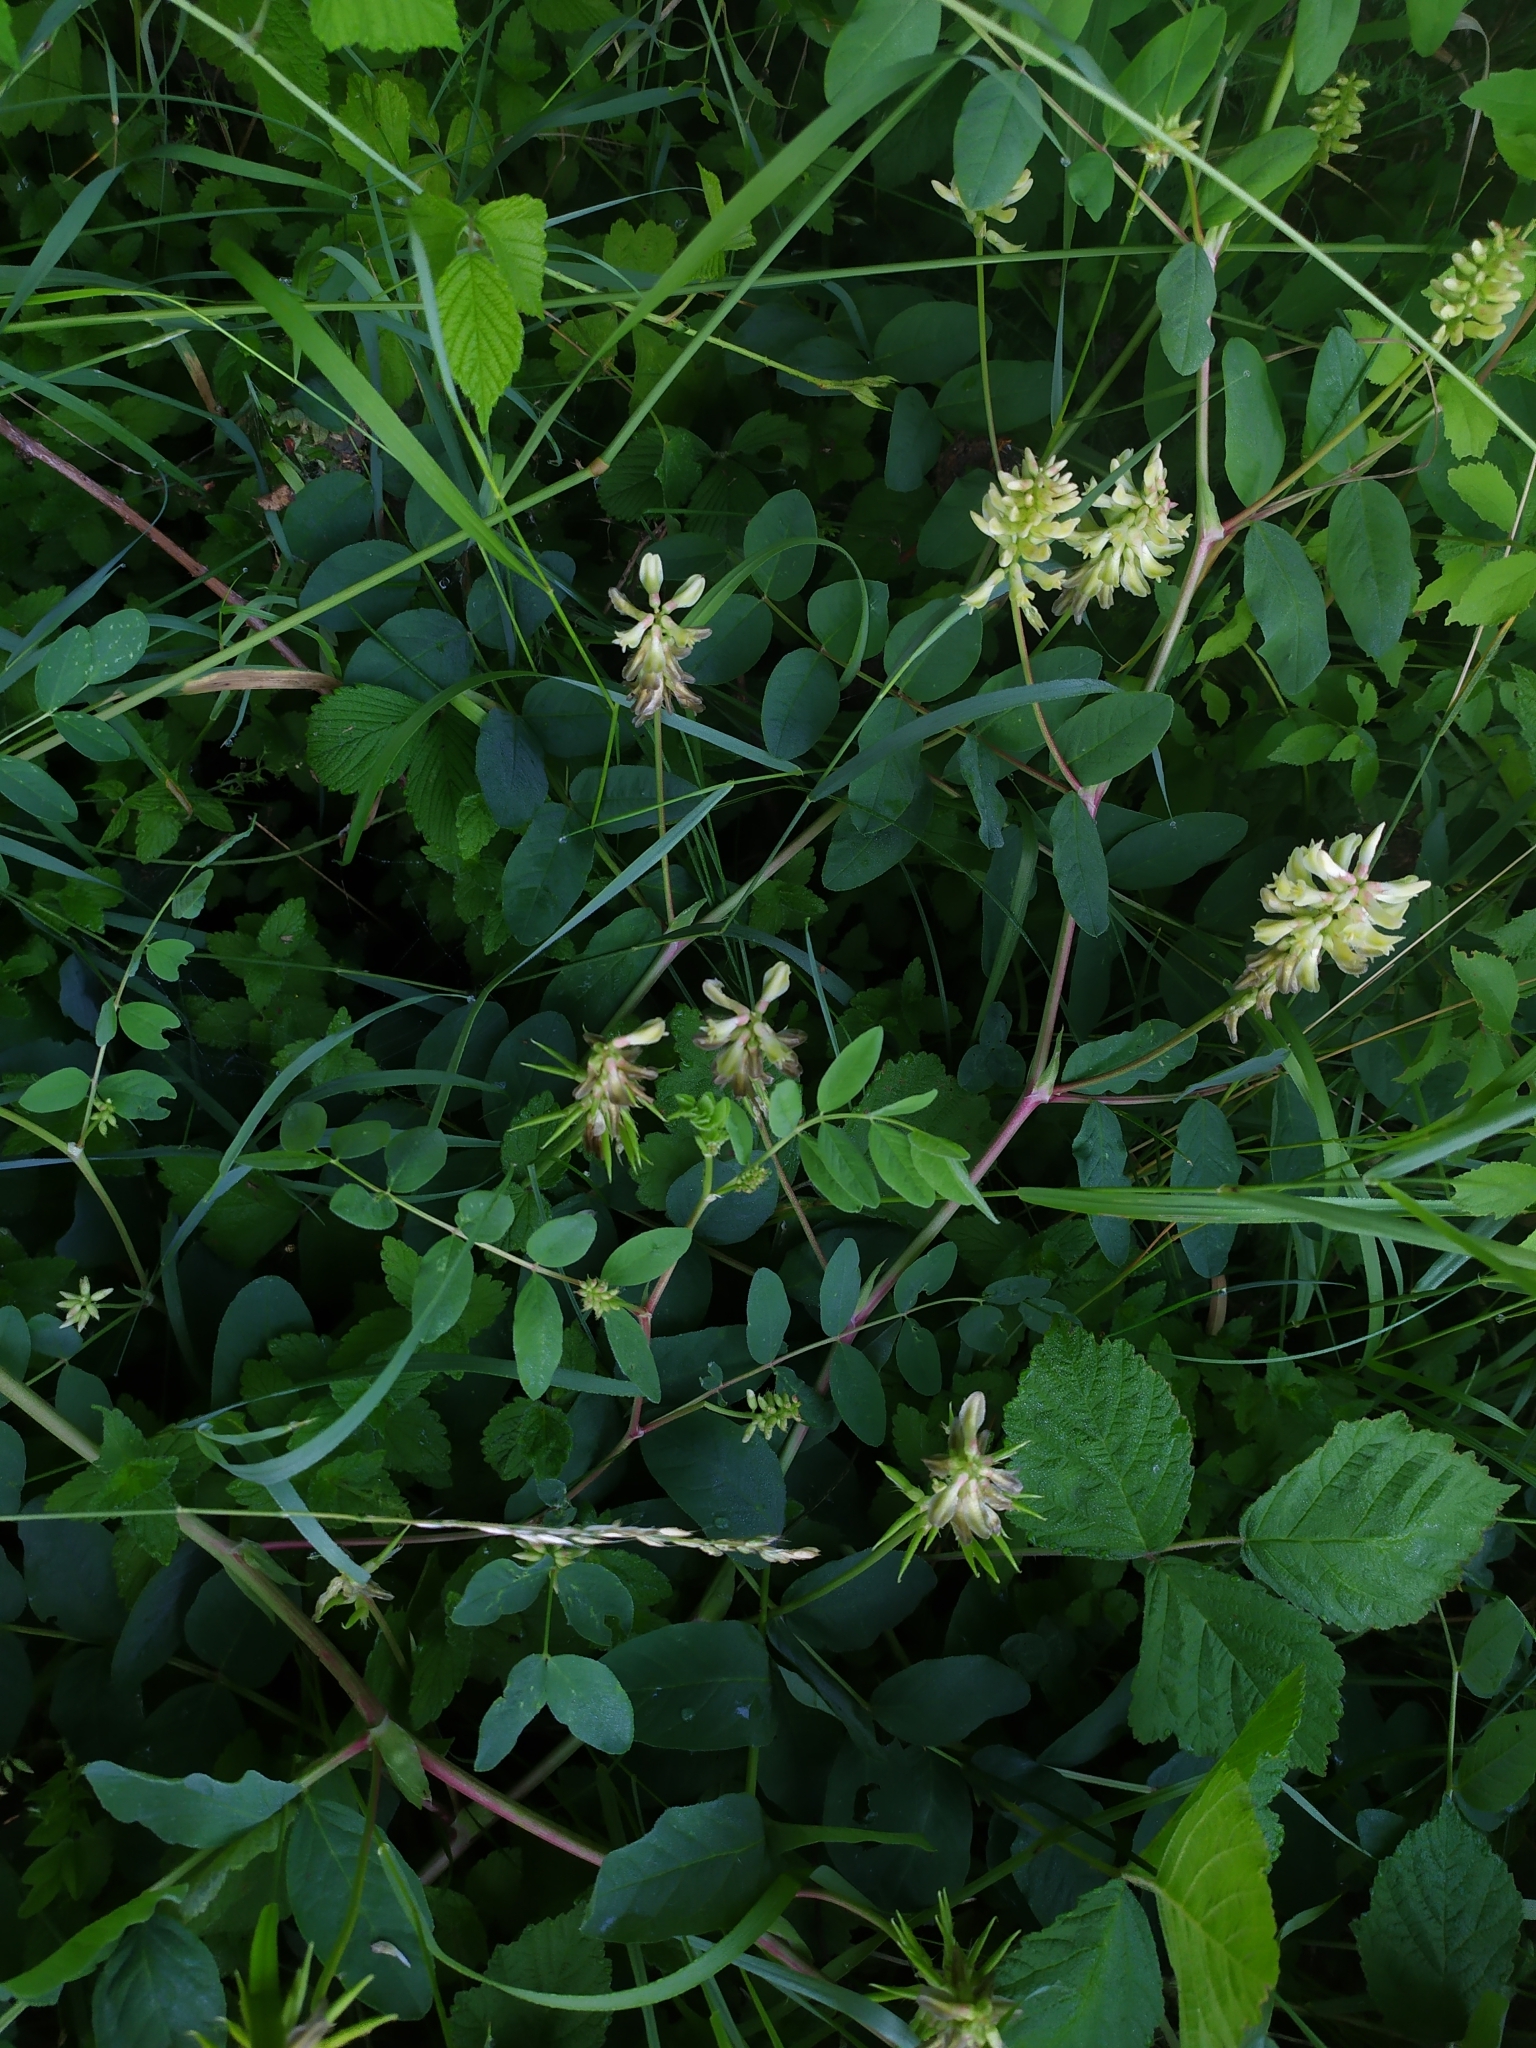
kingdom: Plantae
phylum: Tracheophyta
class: Magnoliopsida
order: Fabales
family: Fabaceae
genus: Astragalus
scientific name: Astragalus glycyphyllos
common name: Wild liquorice
